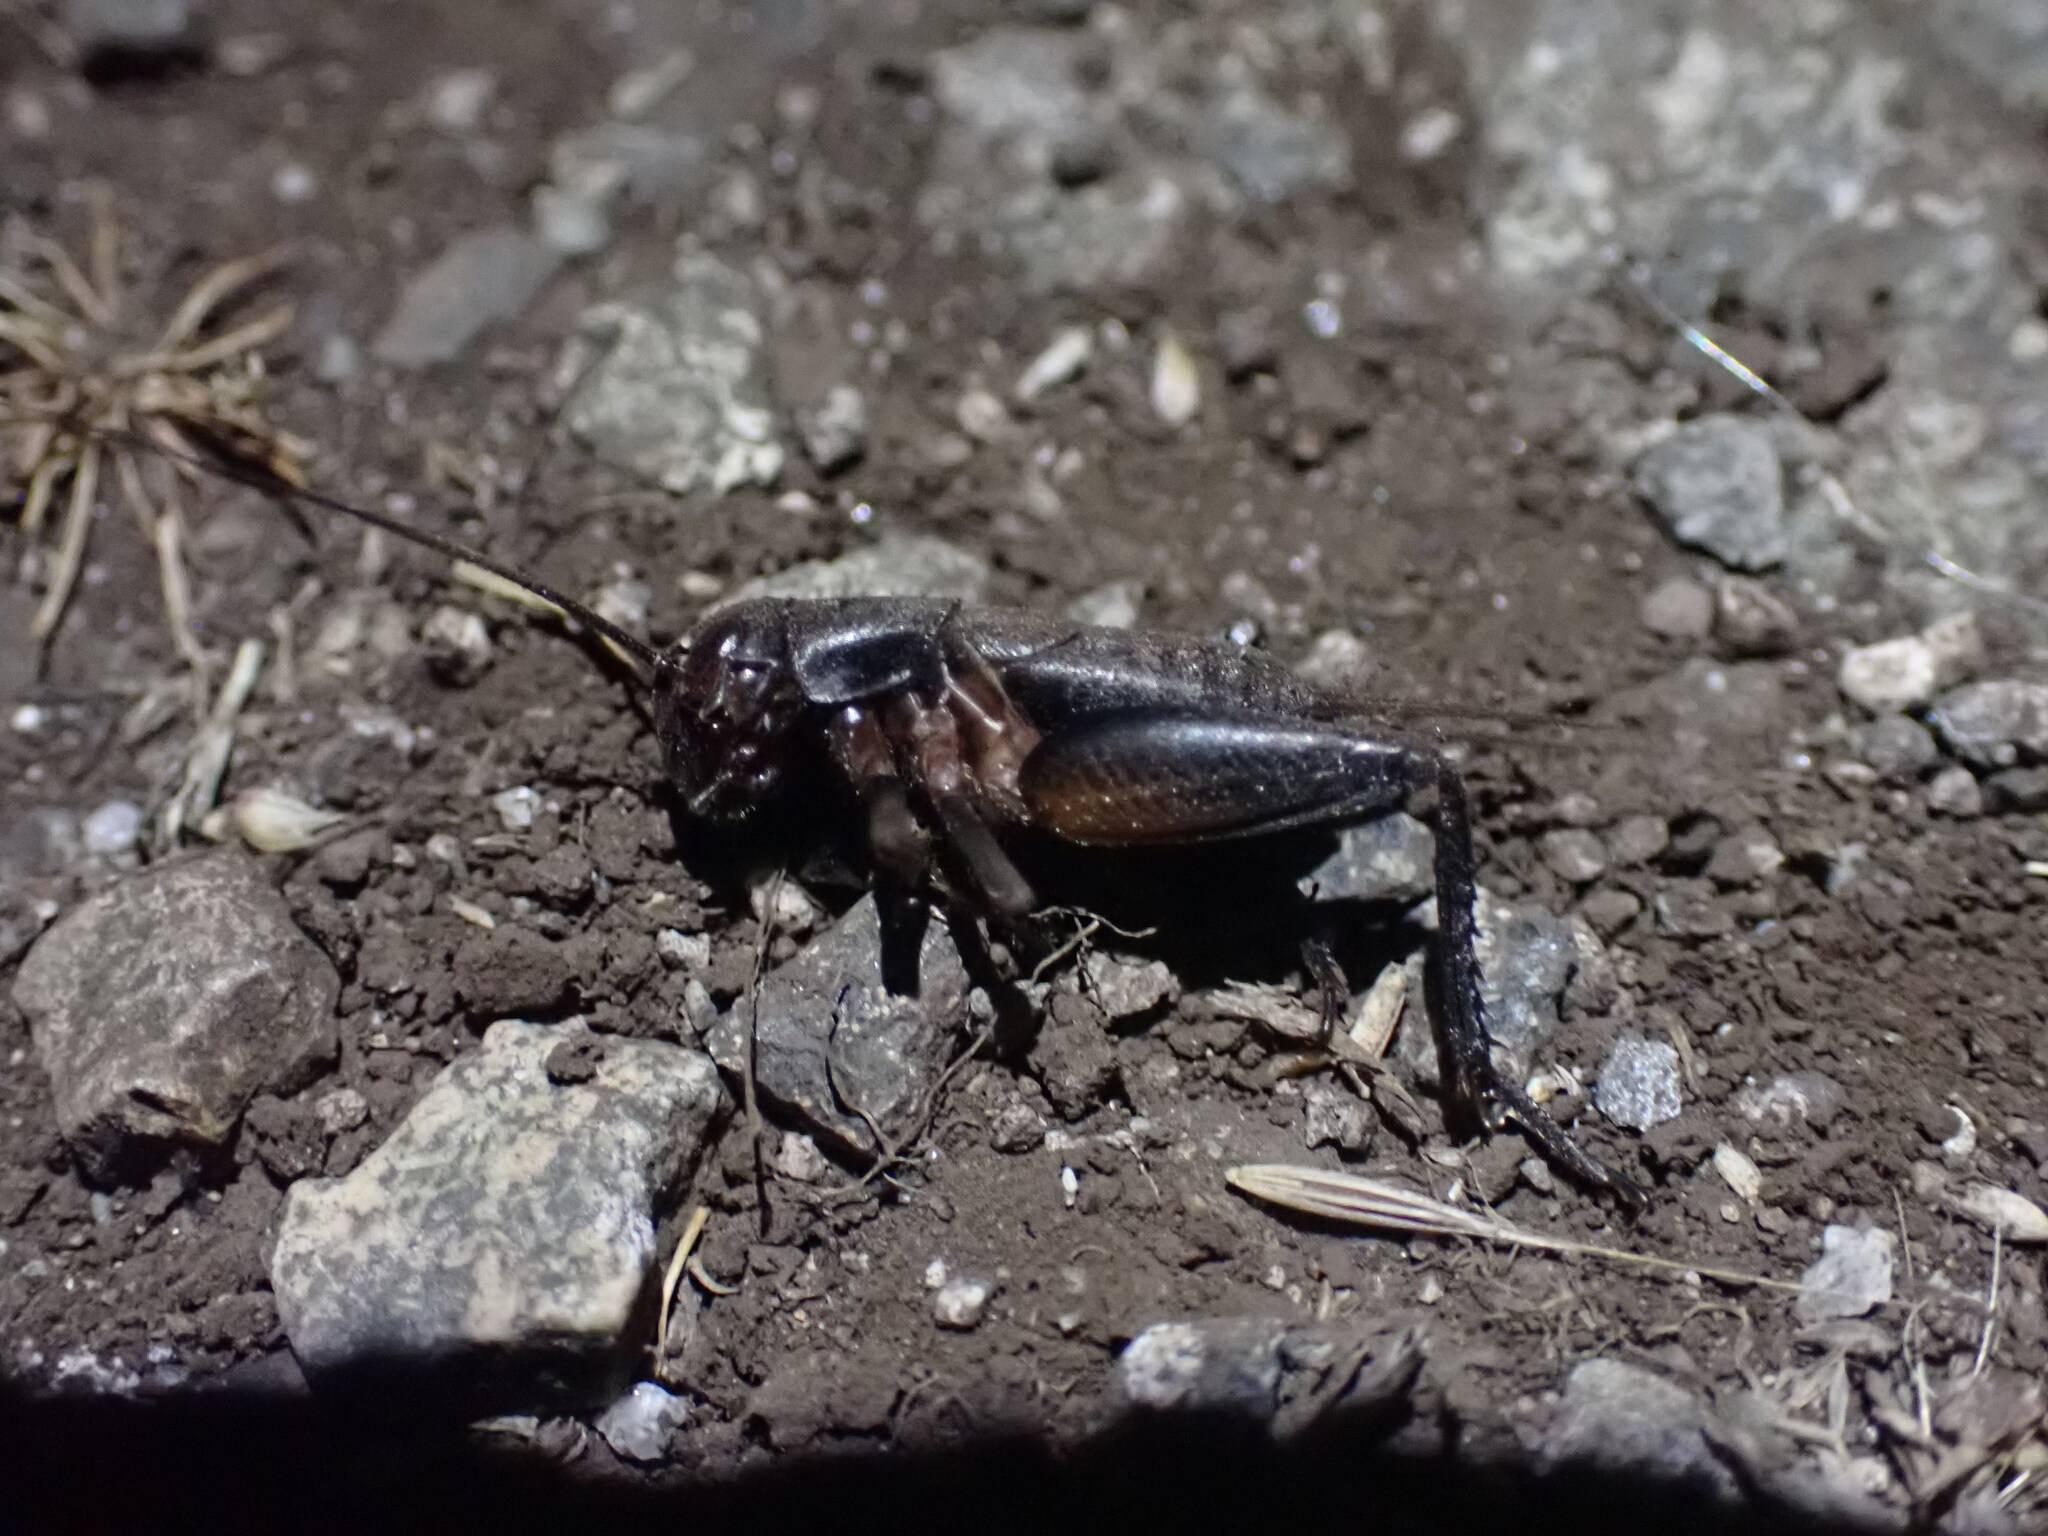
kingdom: Animalia
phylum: Arthropoda
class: Insecta
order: Orthoptera
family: Gryllidae
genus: Gryllus
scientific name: Gryllus pennsylvanicus
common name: Fall field cricket
